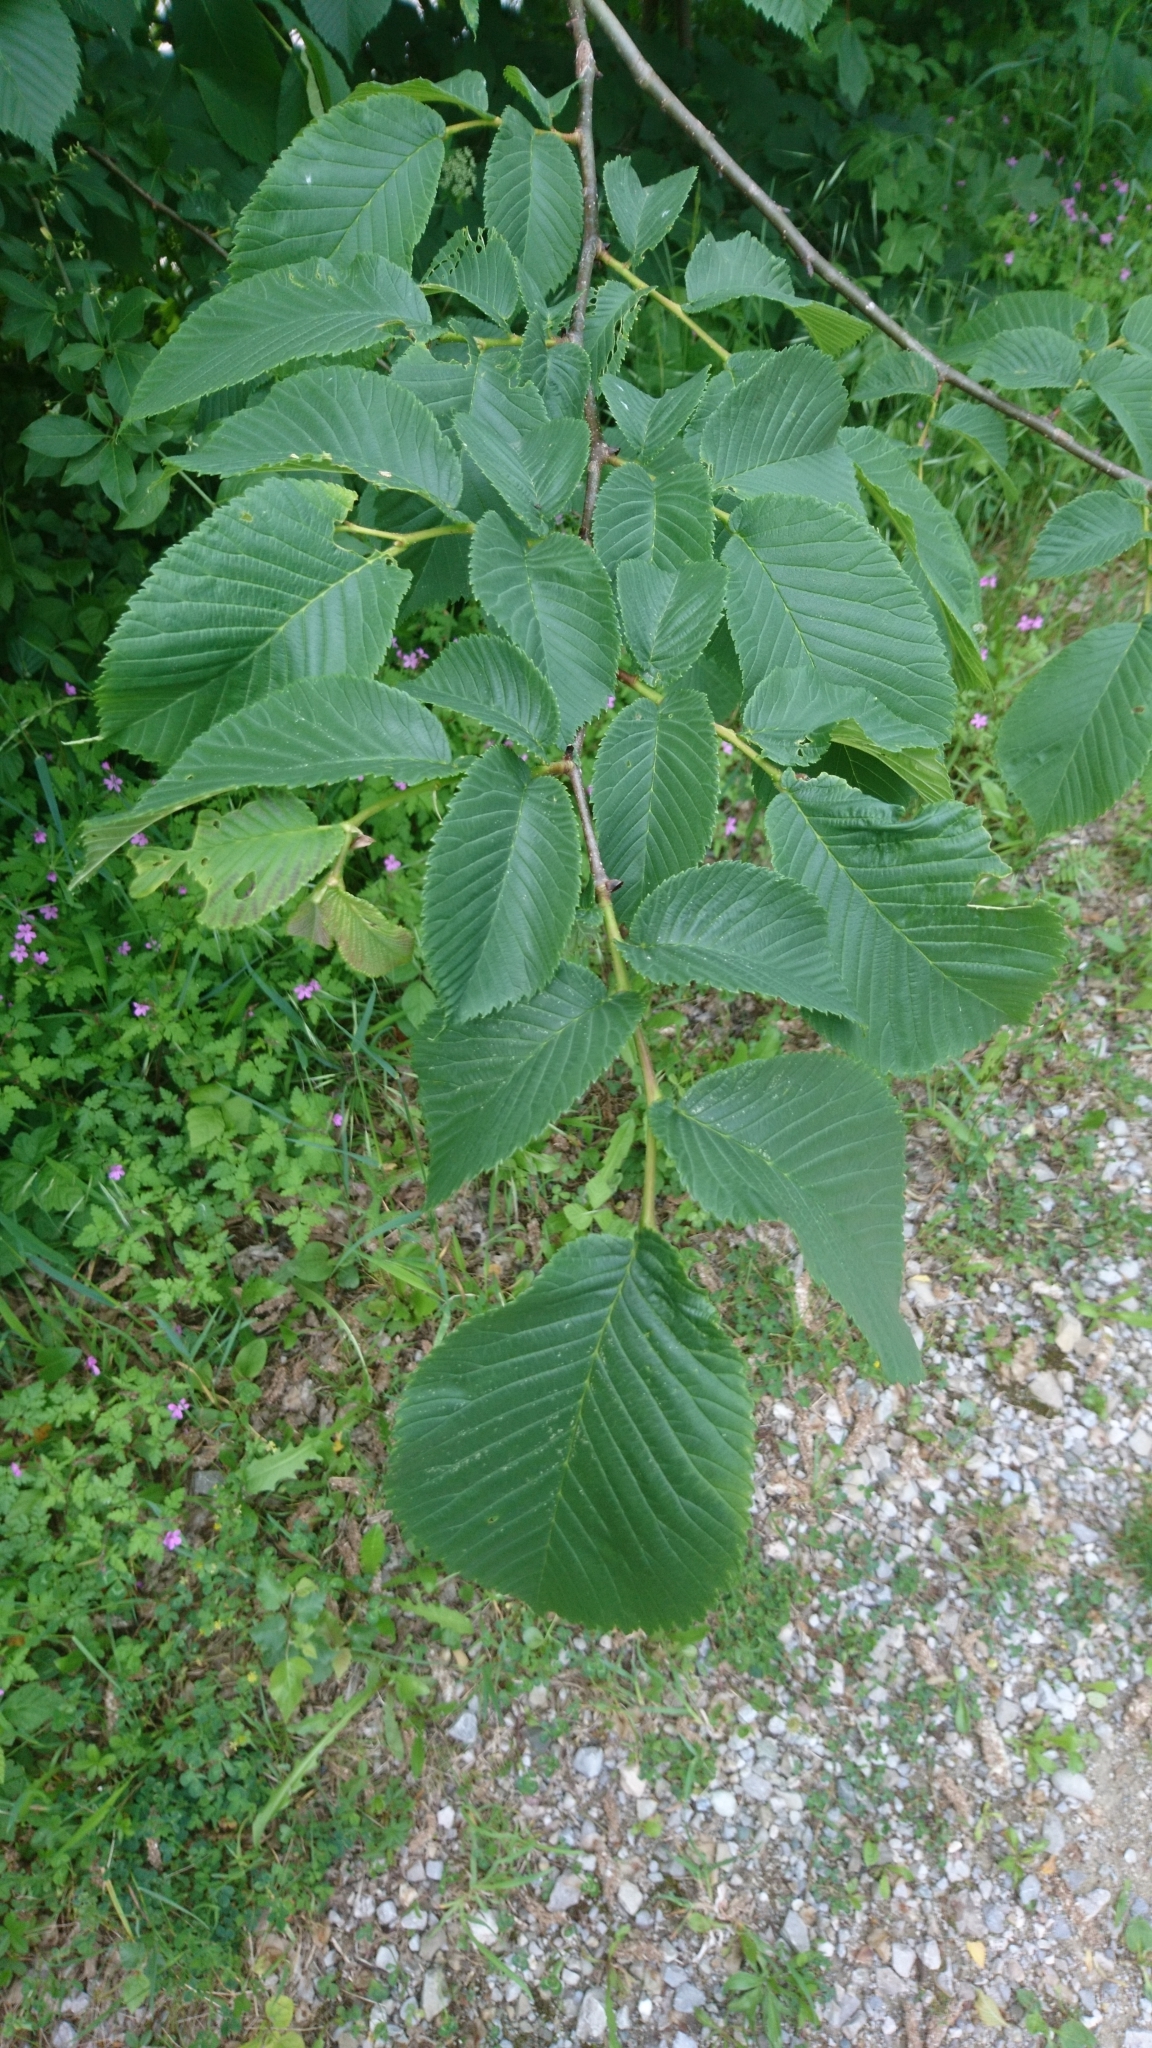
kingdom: Plantae
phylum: Tracheophyta
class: Magnoliopsida
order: Rosales
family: Ulmaceae
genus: Ulmus
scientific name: Ulmus glabra
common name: Wych elm
